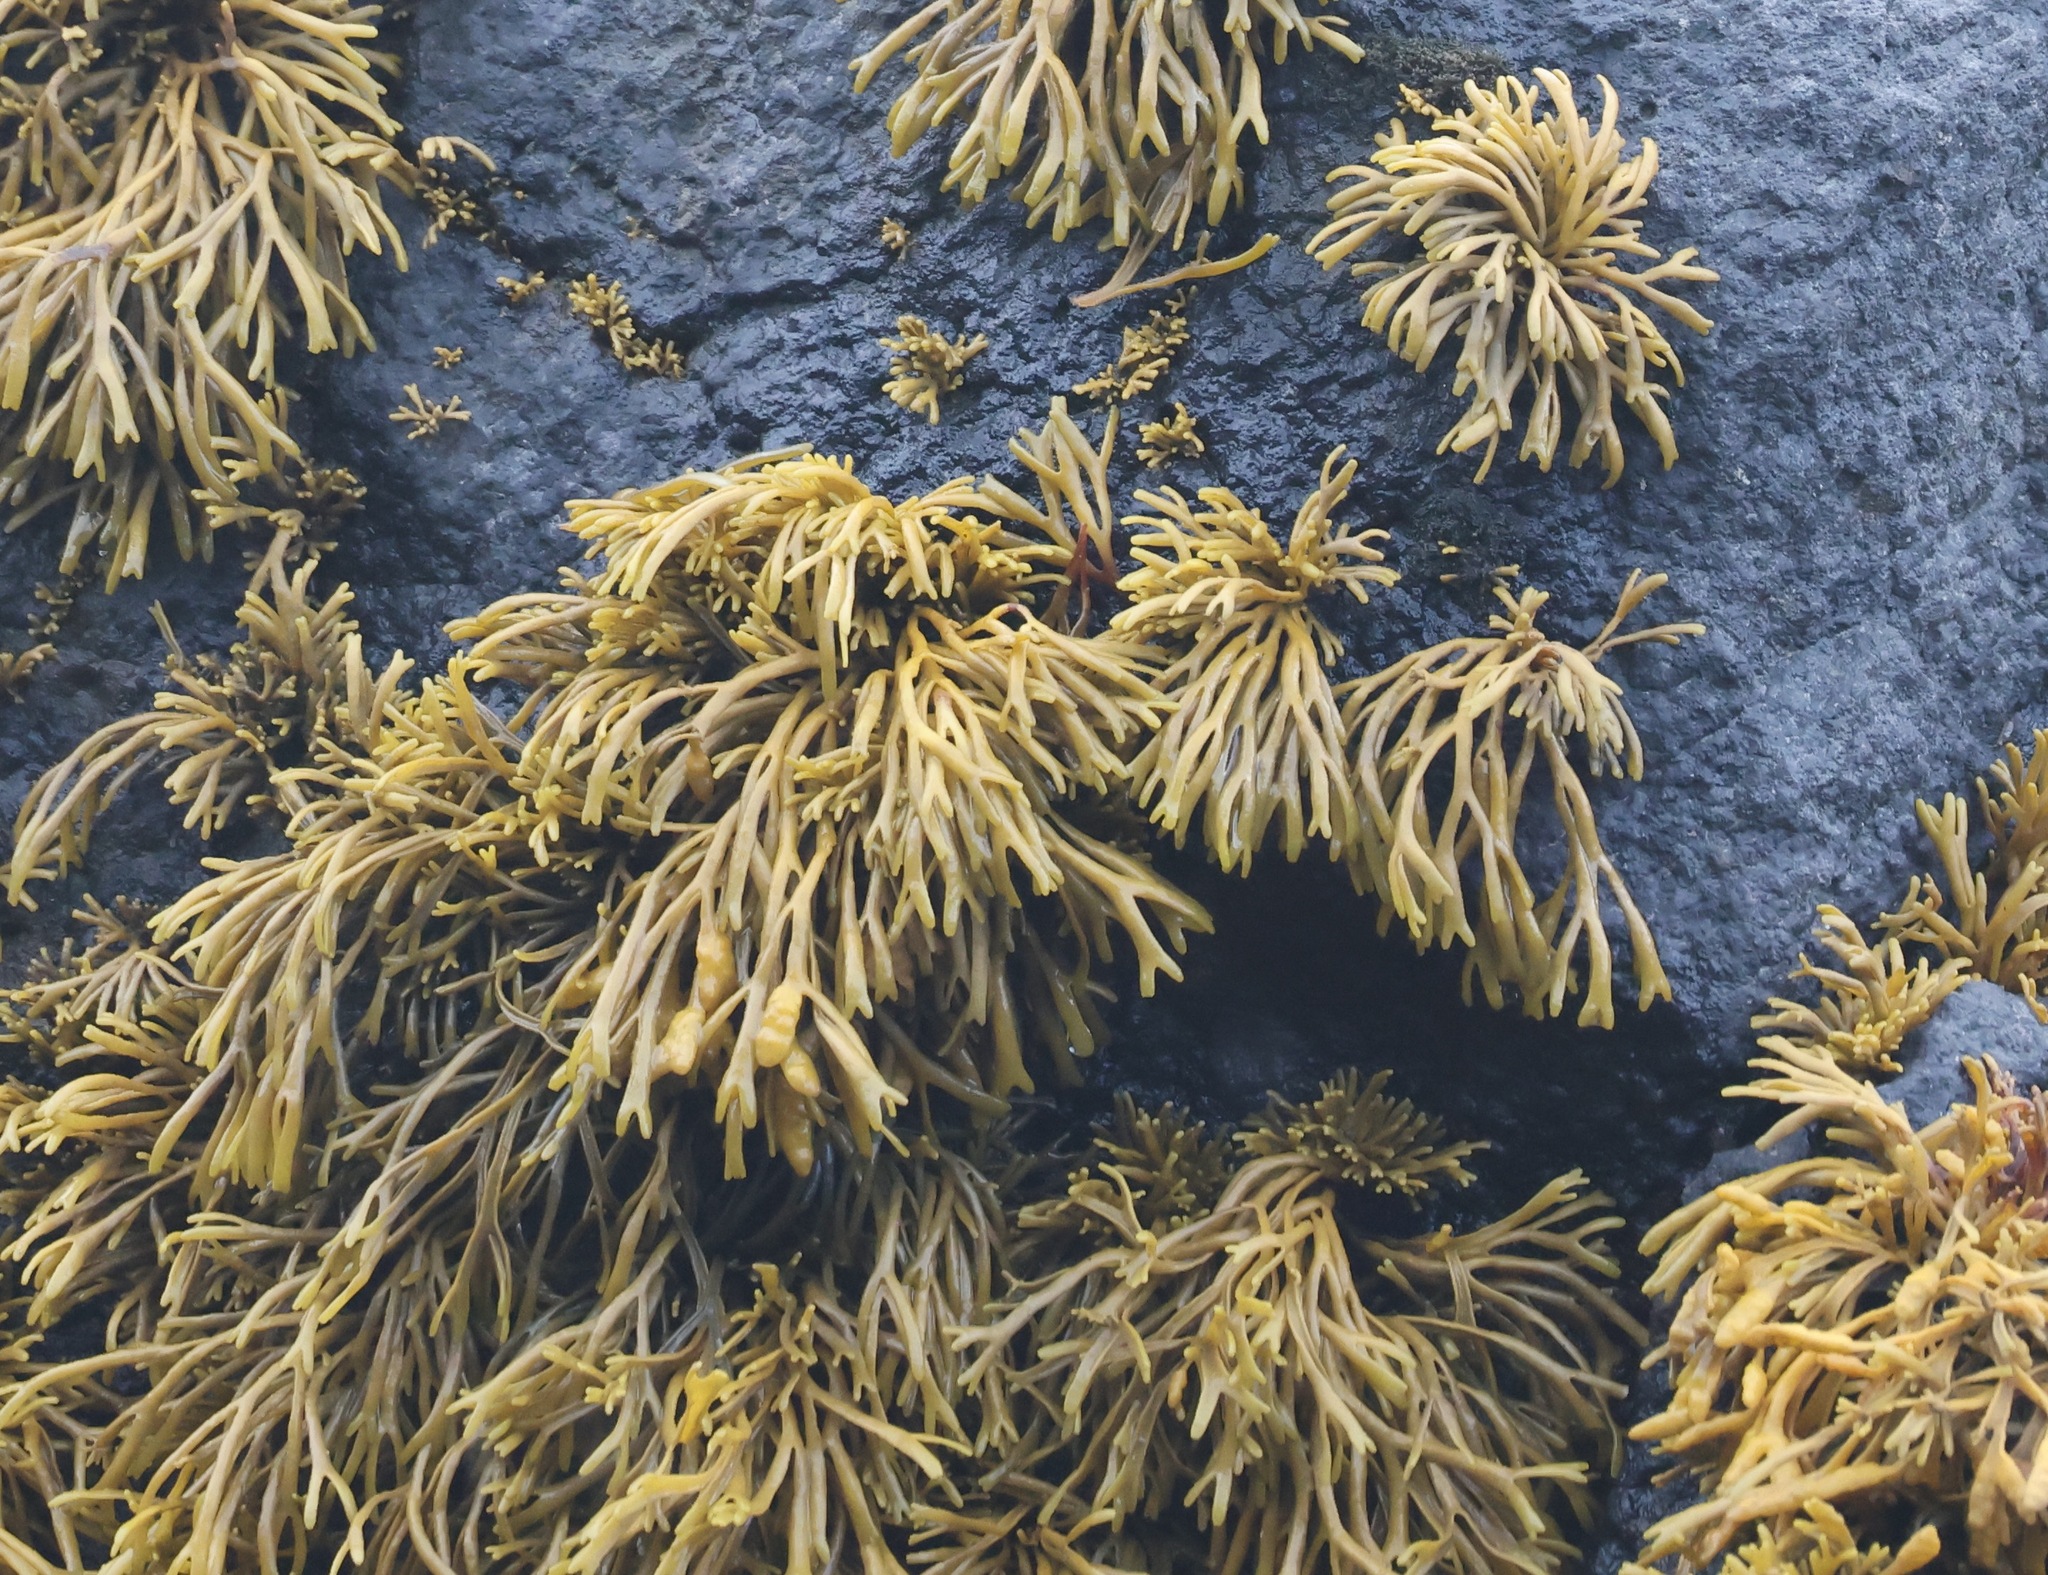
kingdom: Chromista
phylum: Ochrophyta
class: Phaeophyceae
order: Fucales
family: Fucaceae
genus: Pelvetia
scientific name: Pelvetia canaliculata
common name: Channelled wrack
